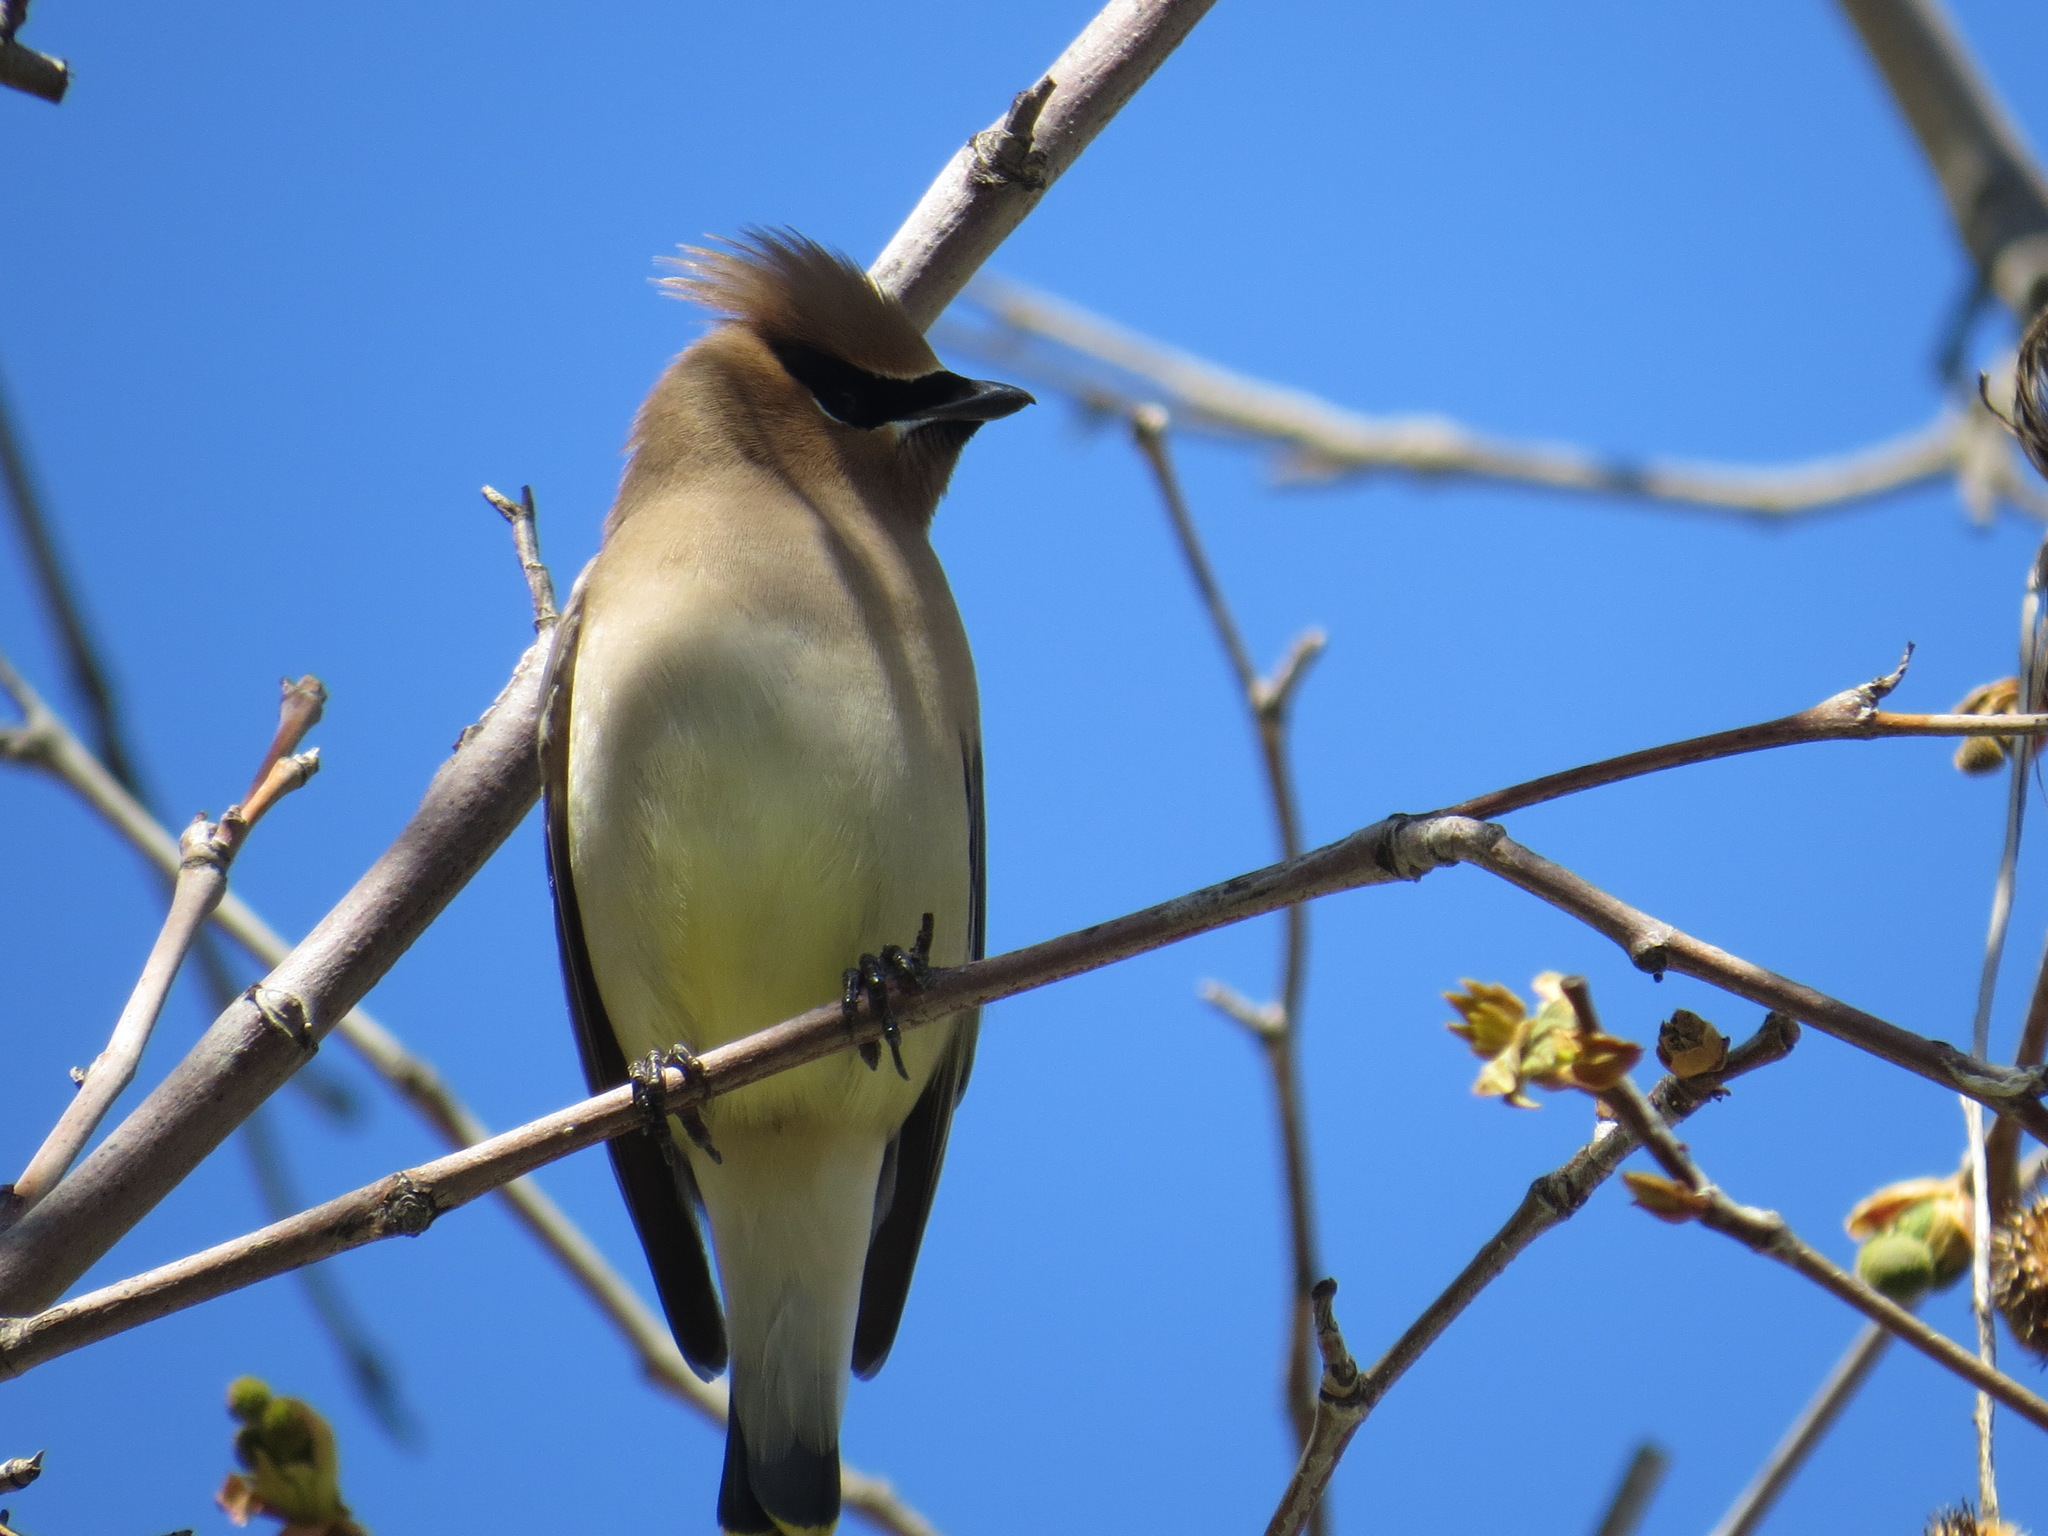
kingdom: Animalia
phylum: Chordata
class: Aves
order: Passeriformes
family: Bombycillidae
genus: Bombycilla
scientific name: Bombycilla cedrorum
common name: Cedar waxwing
